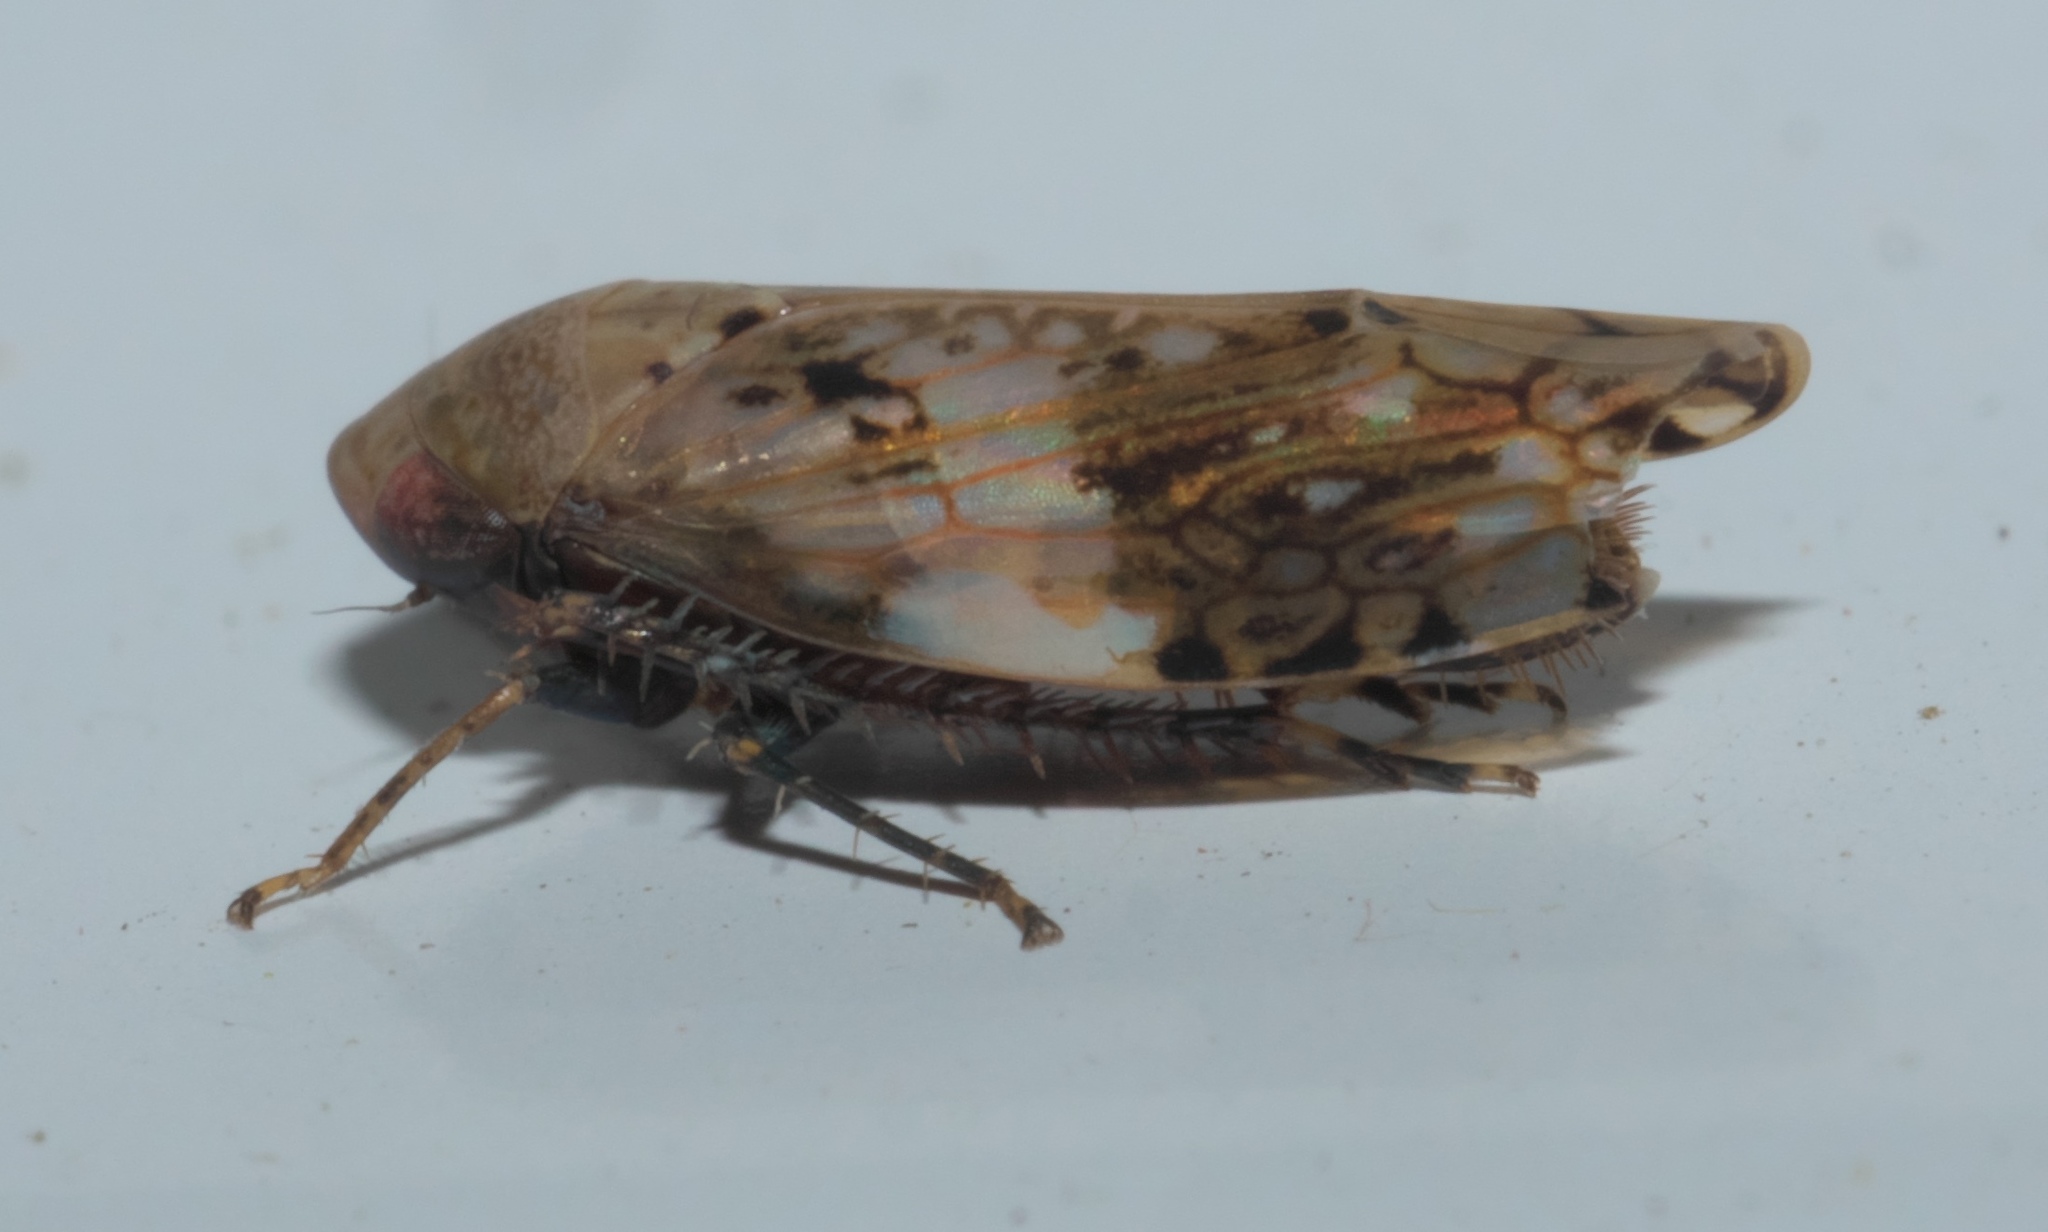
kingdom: Animalia
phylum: Arthropoda
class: Insecta
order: Hemiptera
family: Cicadellidae
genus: Menosoma
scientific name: Menosoma cinctum
